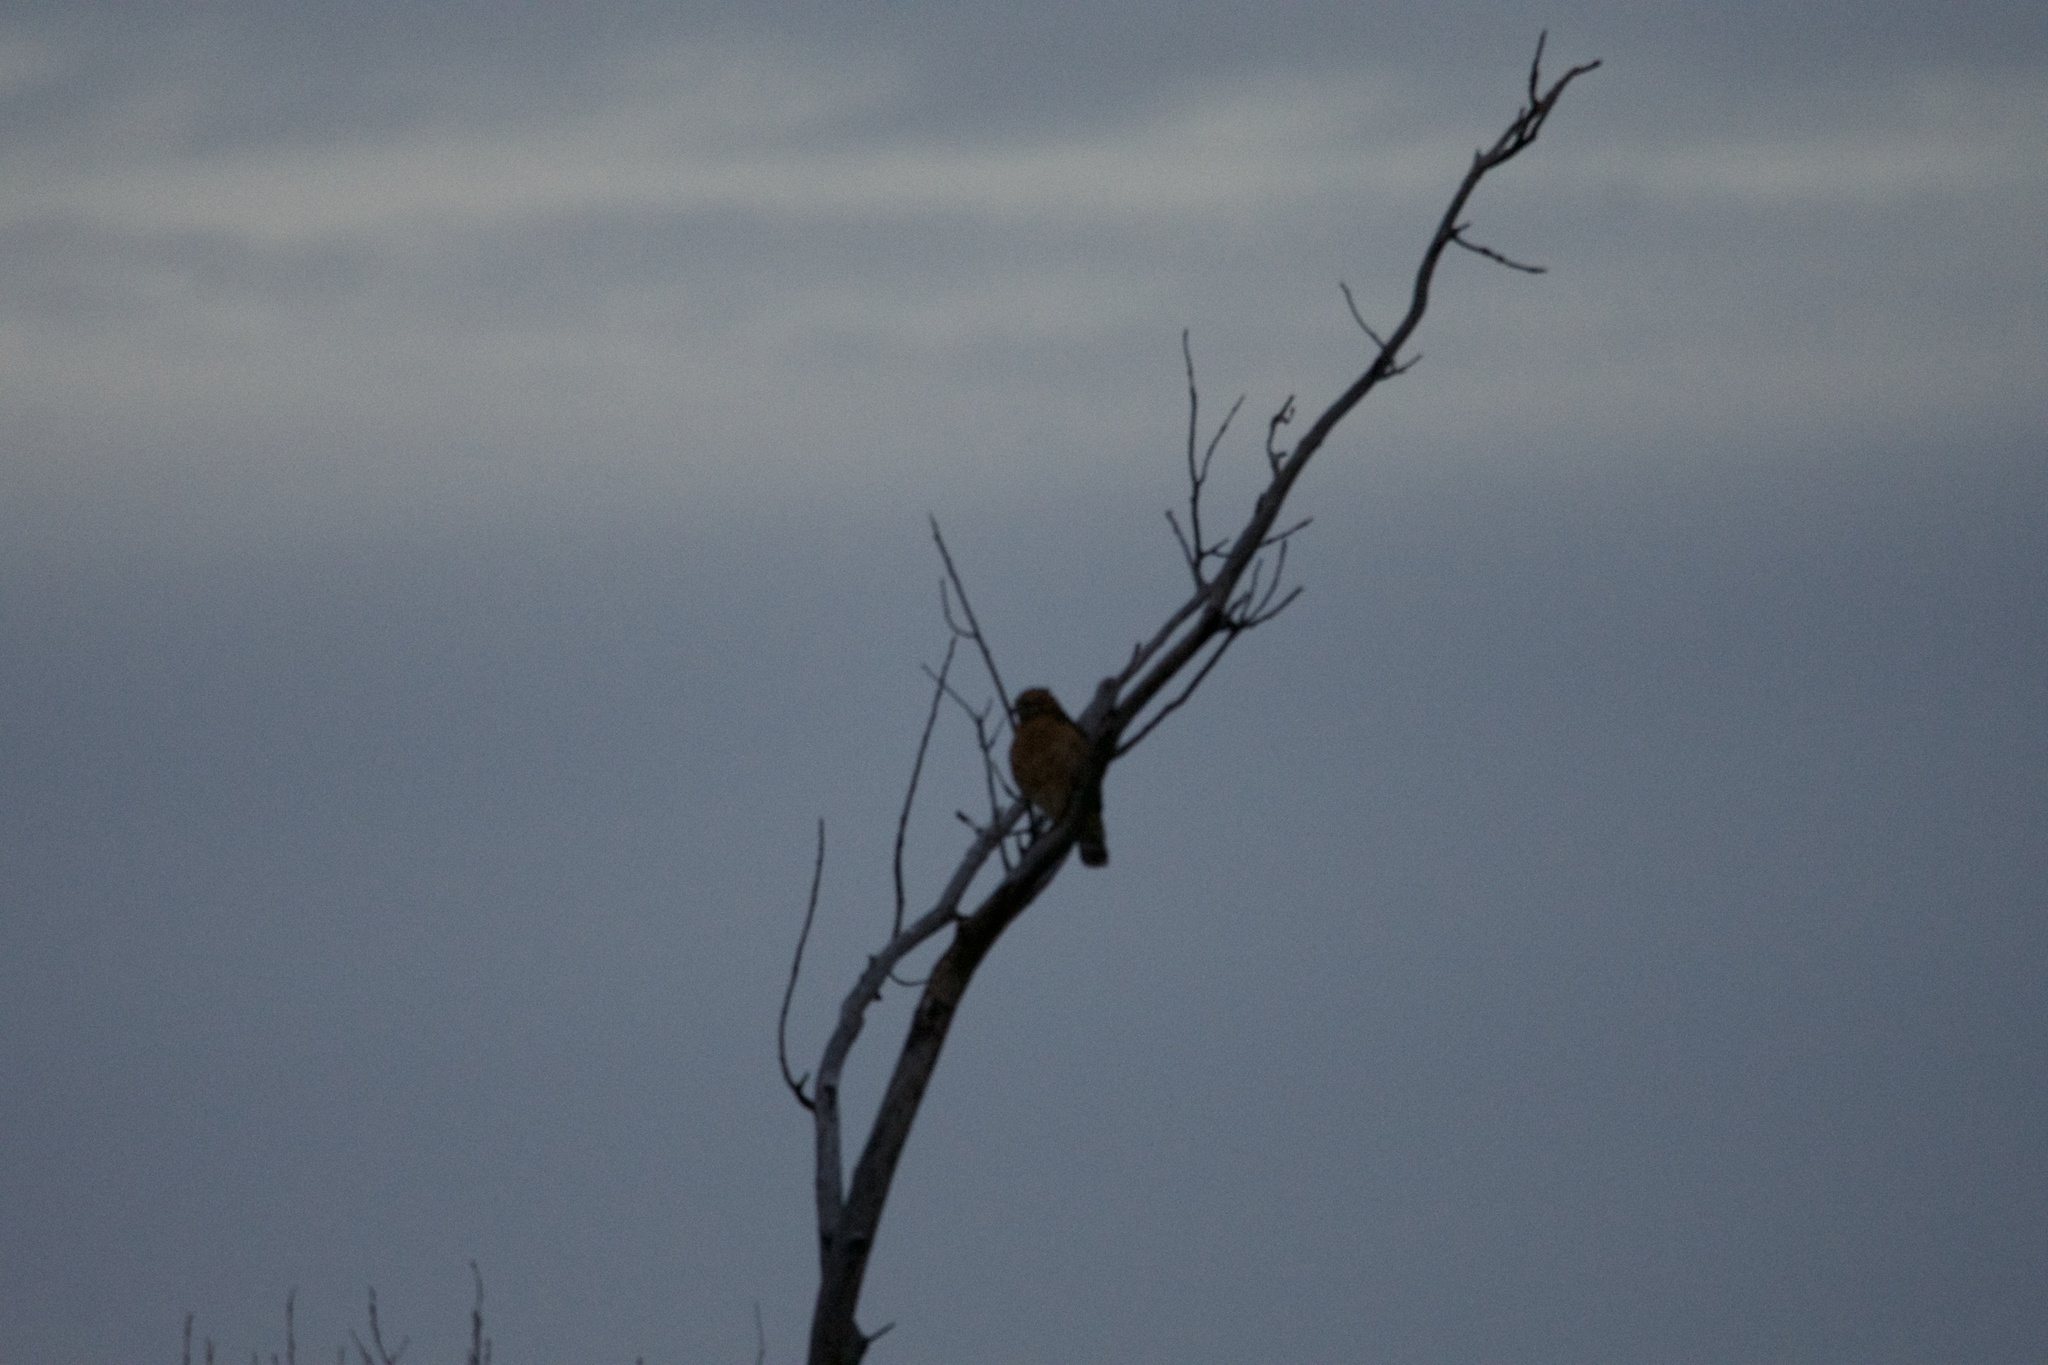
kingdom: Animalia
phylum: Chordata
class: Aves
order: Accipitriformes
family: Accipitridae
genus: Buteo
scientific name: Buteo lineatus
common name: Red-shouldered hawk
